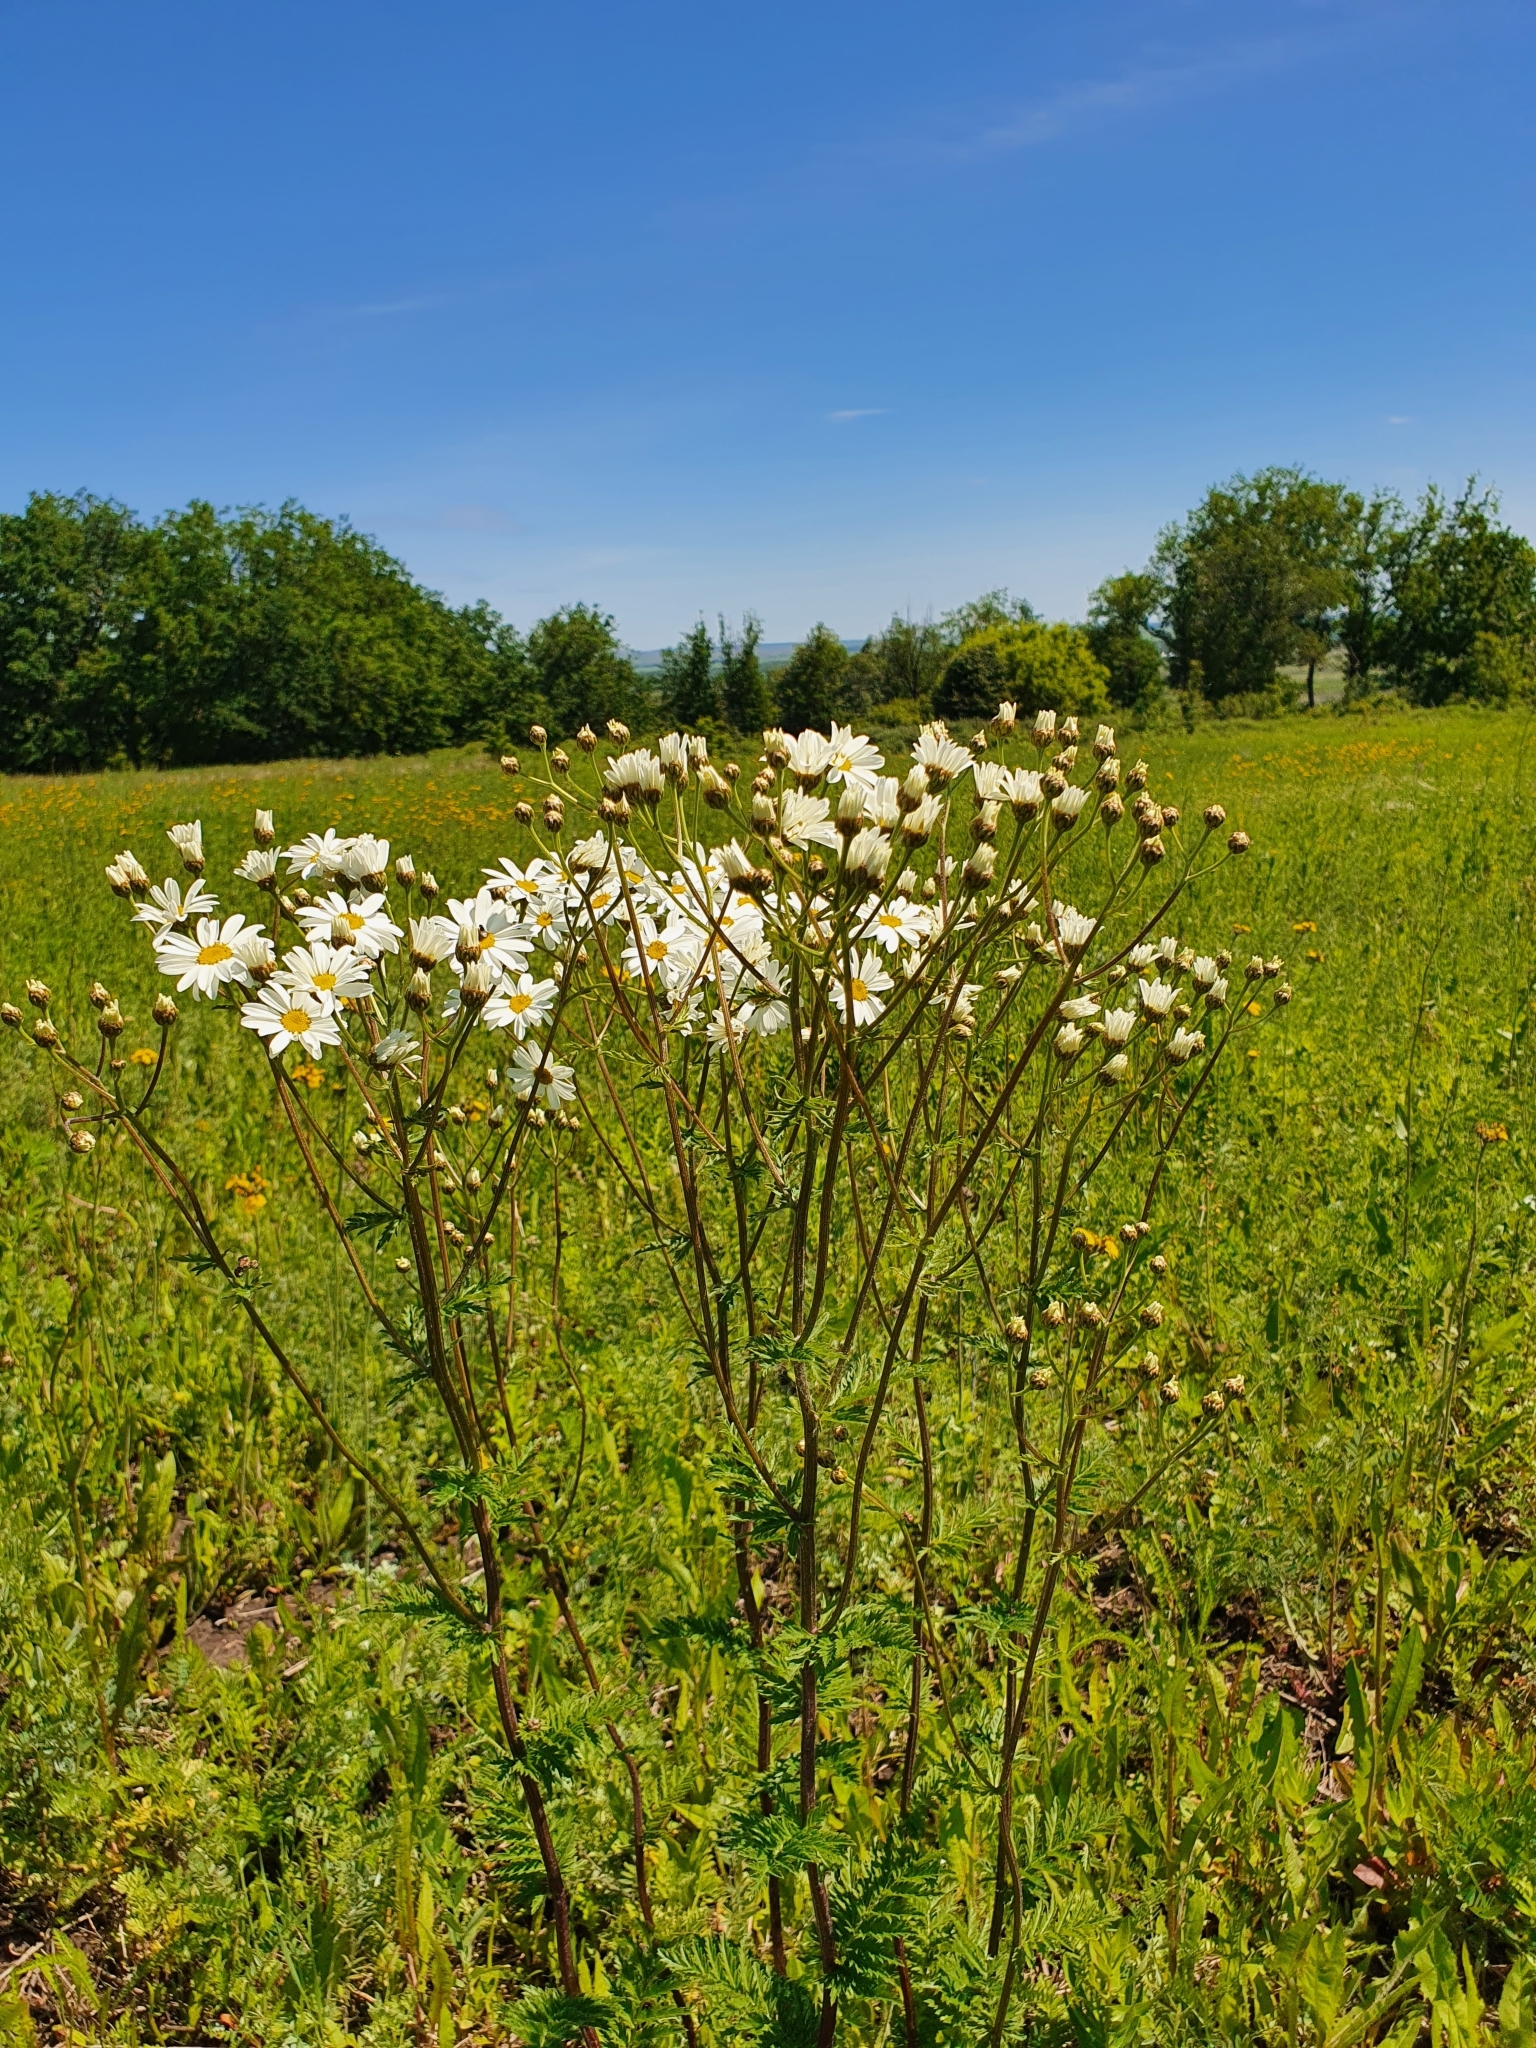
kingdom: Plantae
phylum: Tracheophyta
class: Magnoliopsida
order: Asterales
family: Asteraceae
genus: Tanacetum
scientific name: Tanacetum corymbosum
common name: Scentless feverfew
